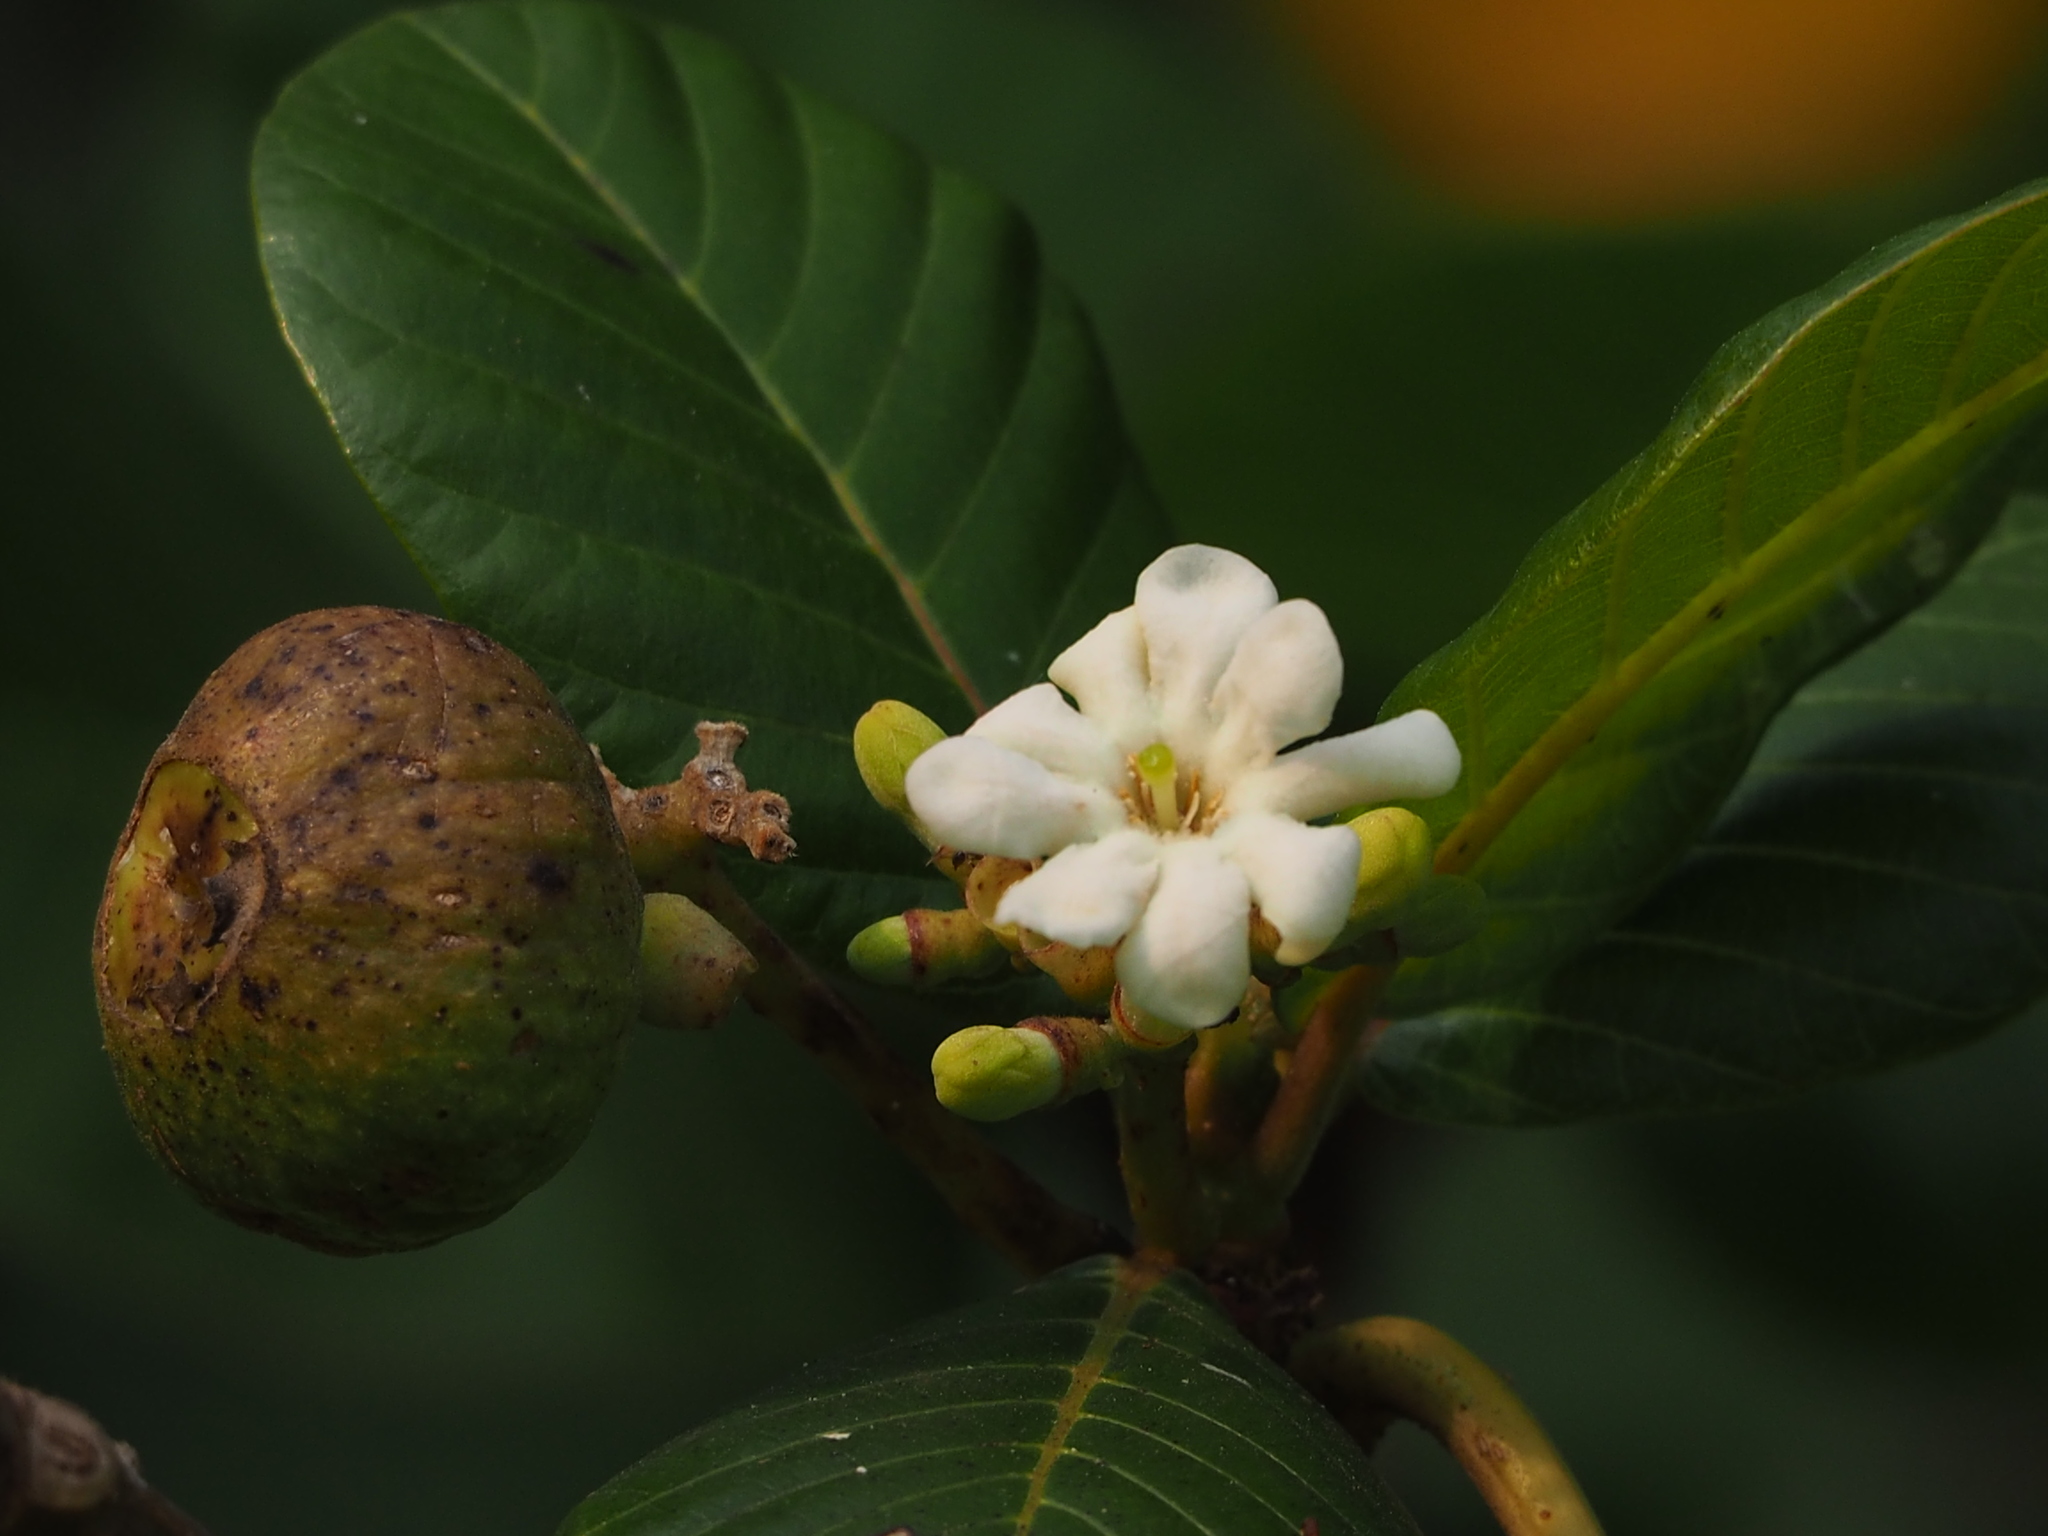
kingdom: Plantae
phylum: Tracheophyta
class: Magnoliopsida
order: Gentianales
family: Rubiaceae
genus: Guettarda
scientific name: Guettarda speciosa
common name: Sea randa
